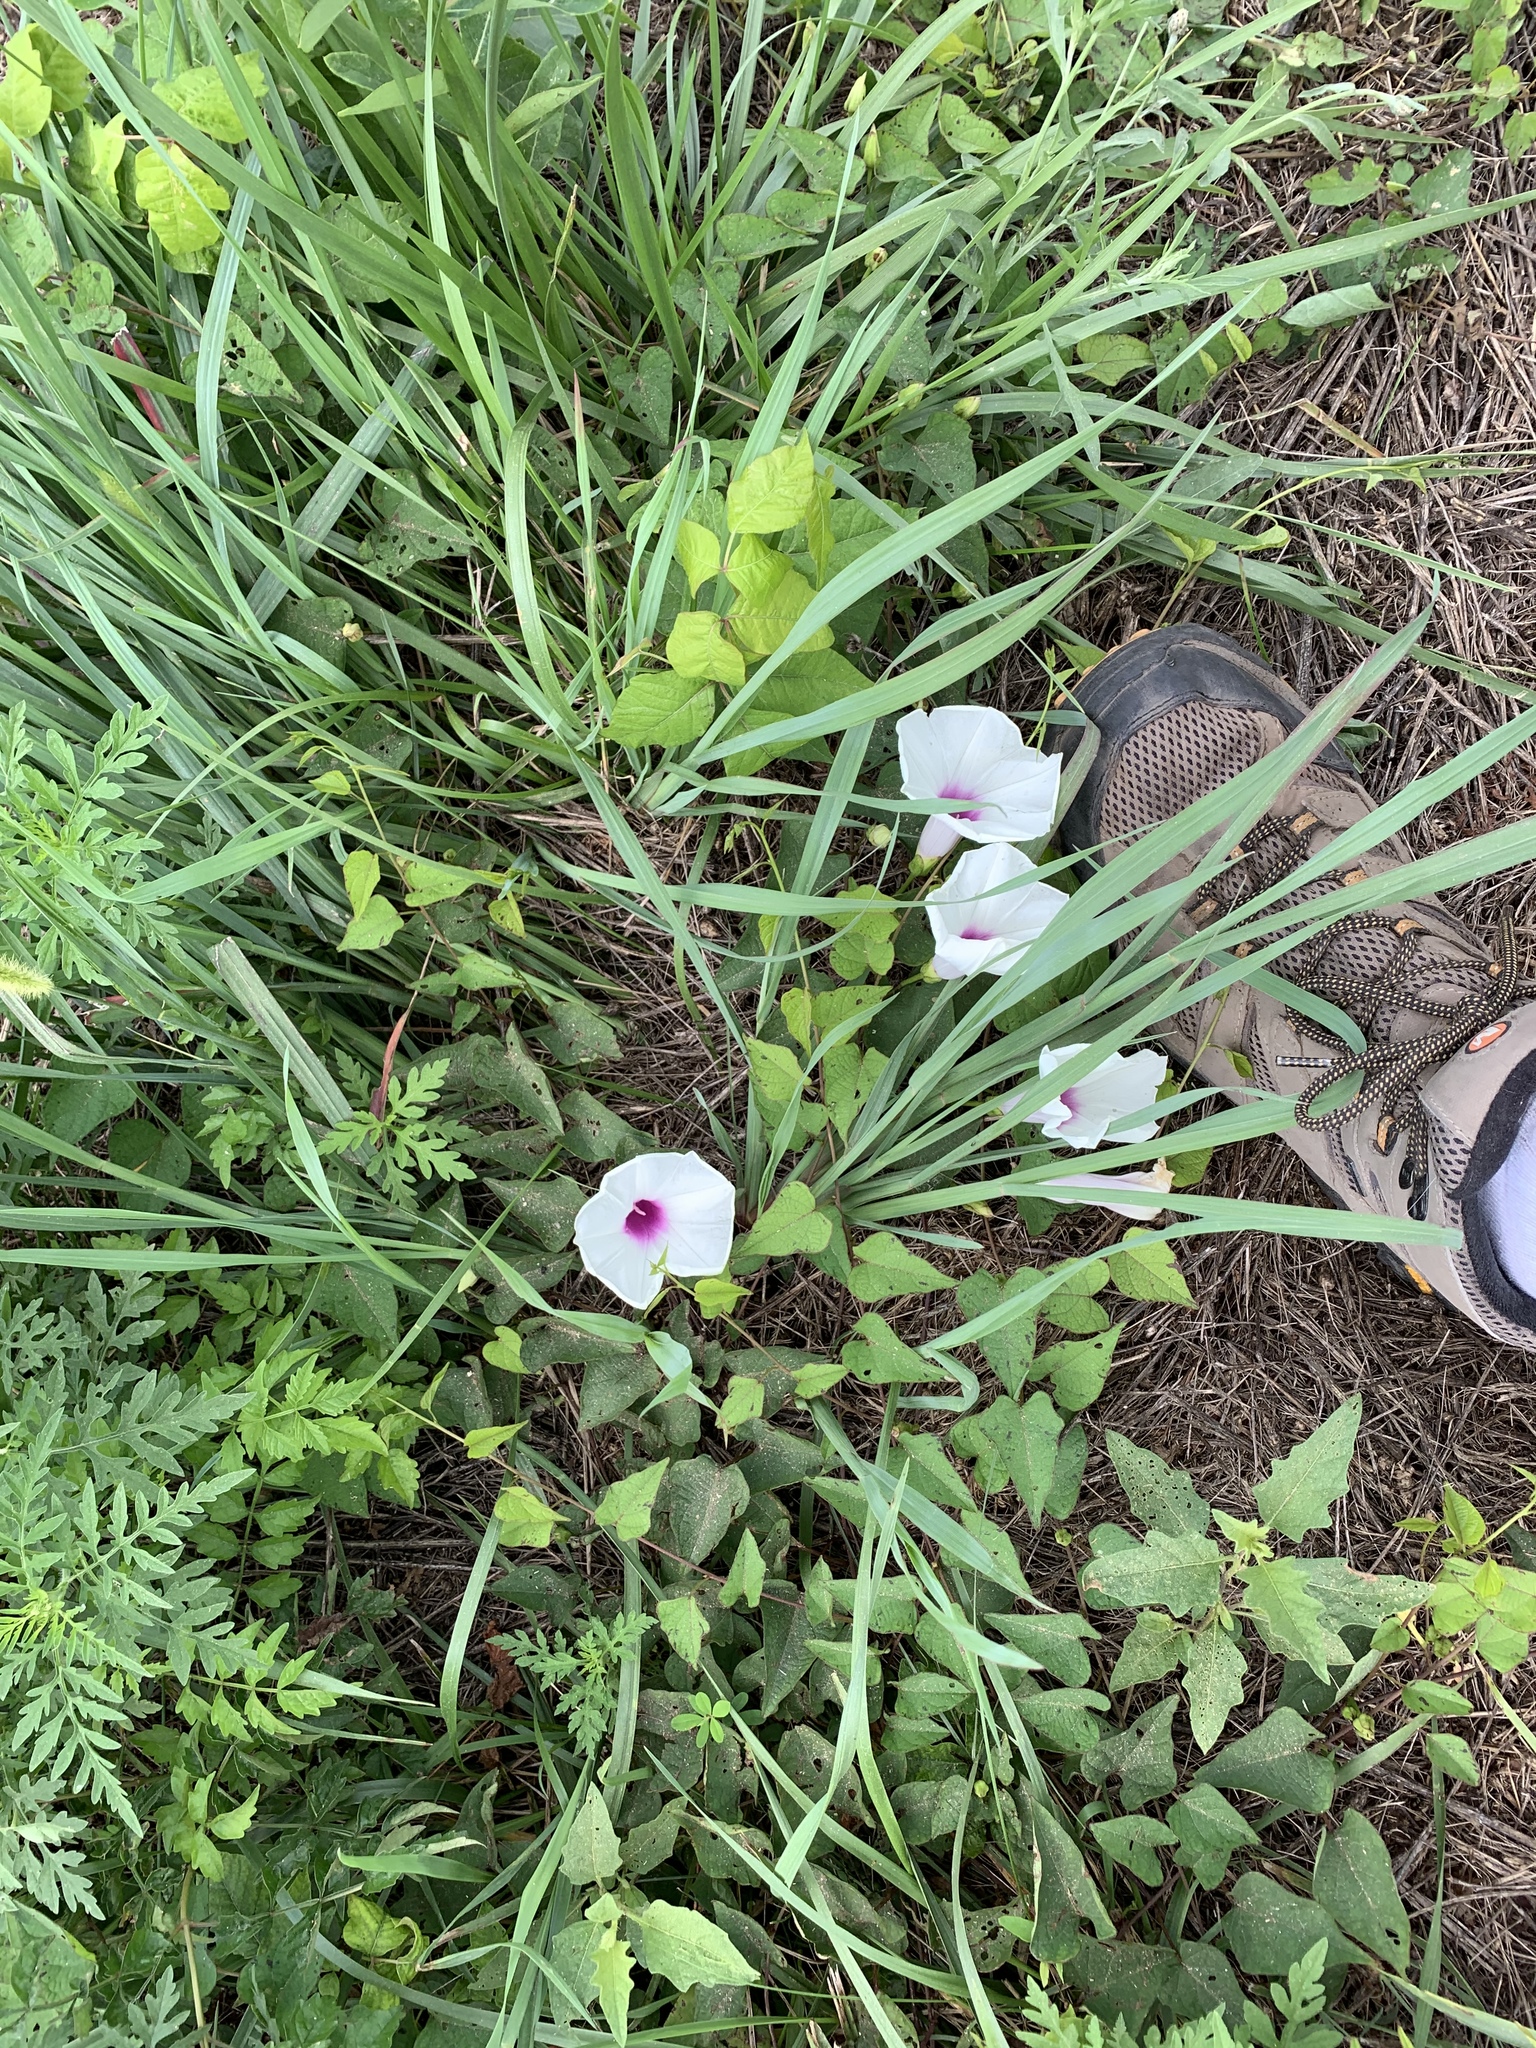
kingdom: Plantae
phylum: Tracheophyta
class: Magnoliopsida
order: Solanales
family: Convolvulaceae
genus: Ipomoea
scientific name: Ipomoea pandurata
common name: Man-of-the-earth
